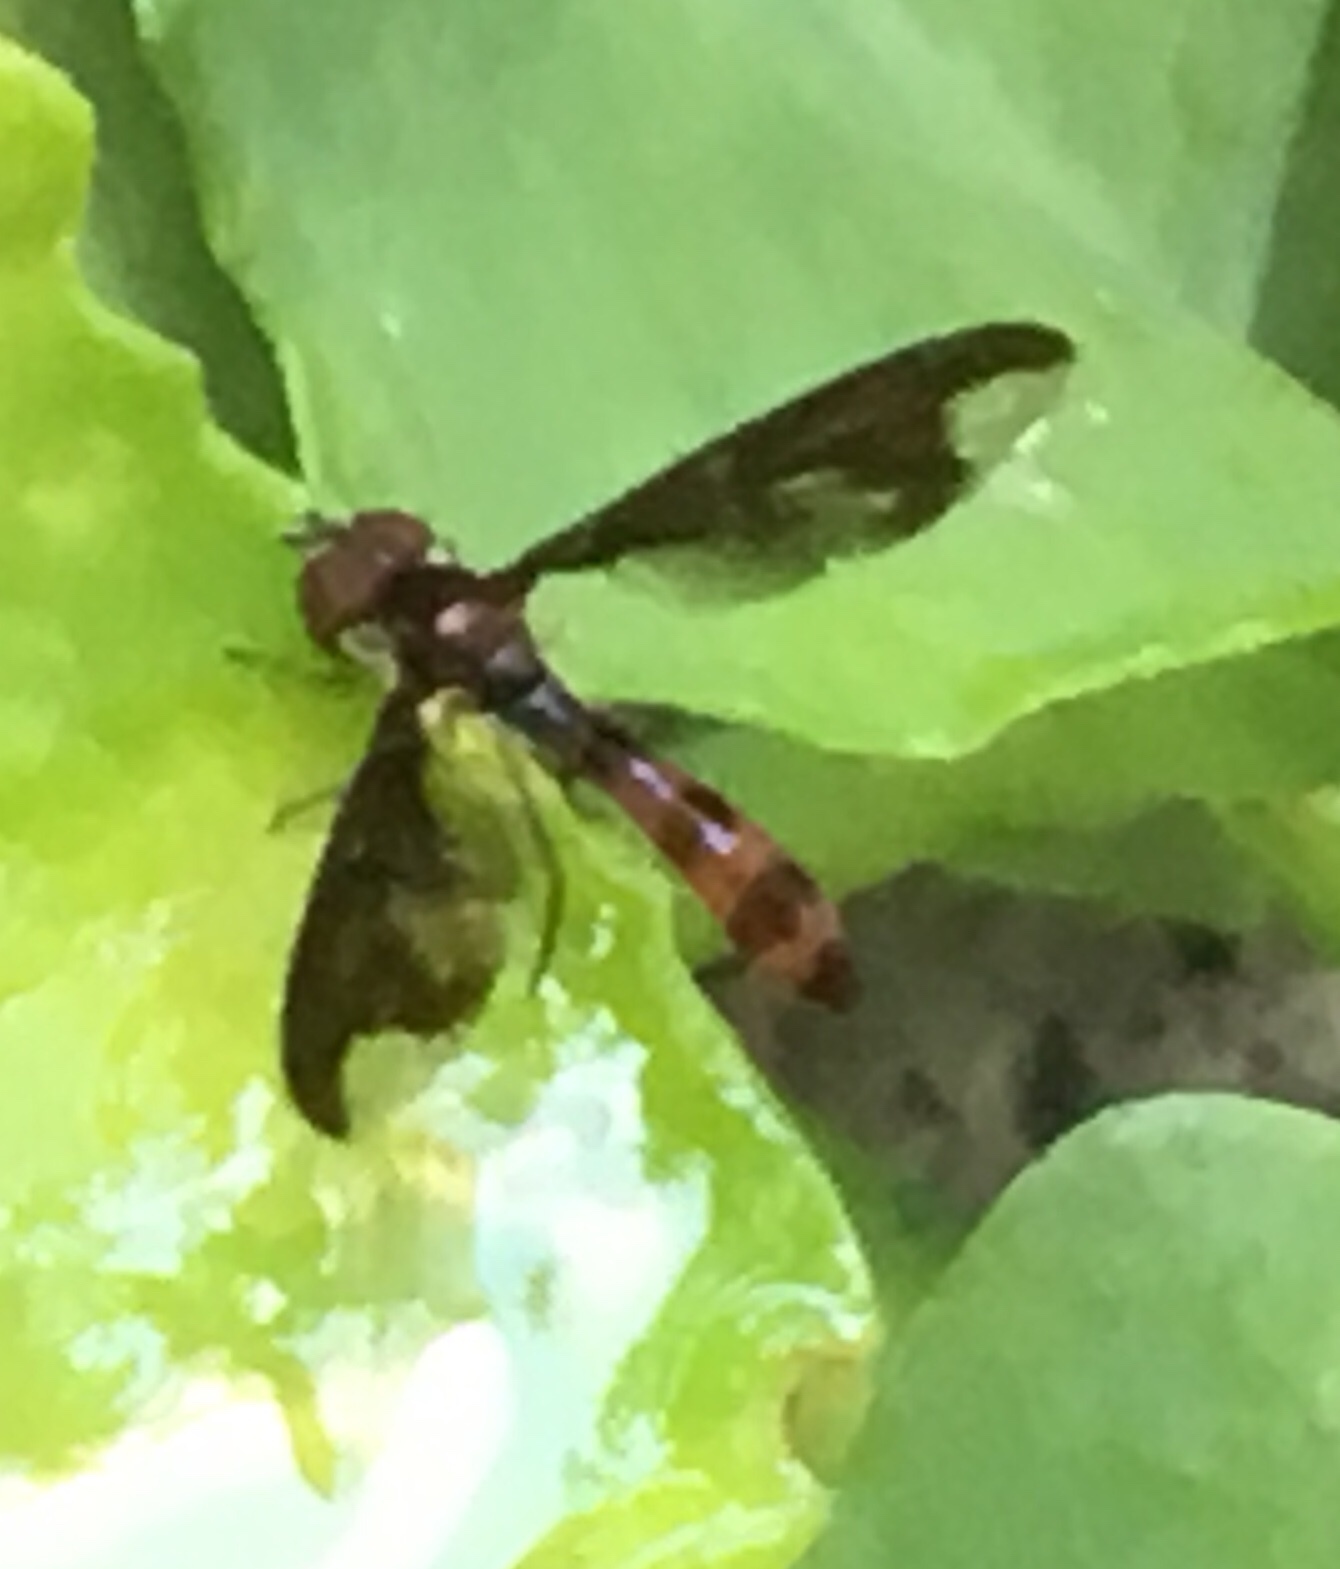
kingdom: Animalia
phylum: Arthropoda
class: Insecta
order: Diptera
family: Syrphidae
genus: Ocyptamus
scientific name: Ocyptamus fuscipennis
